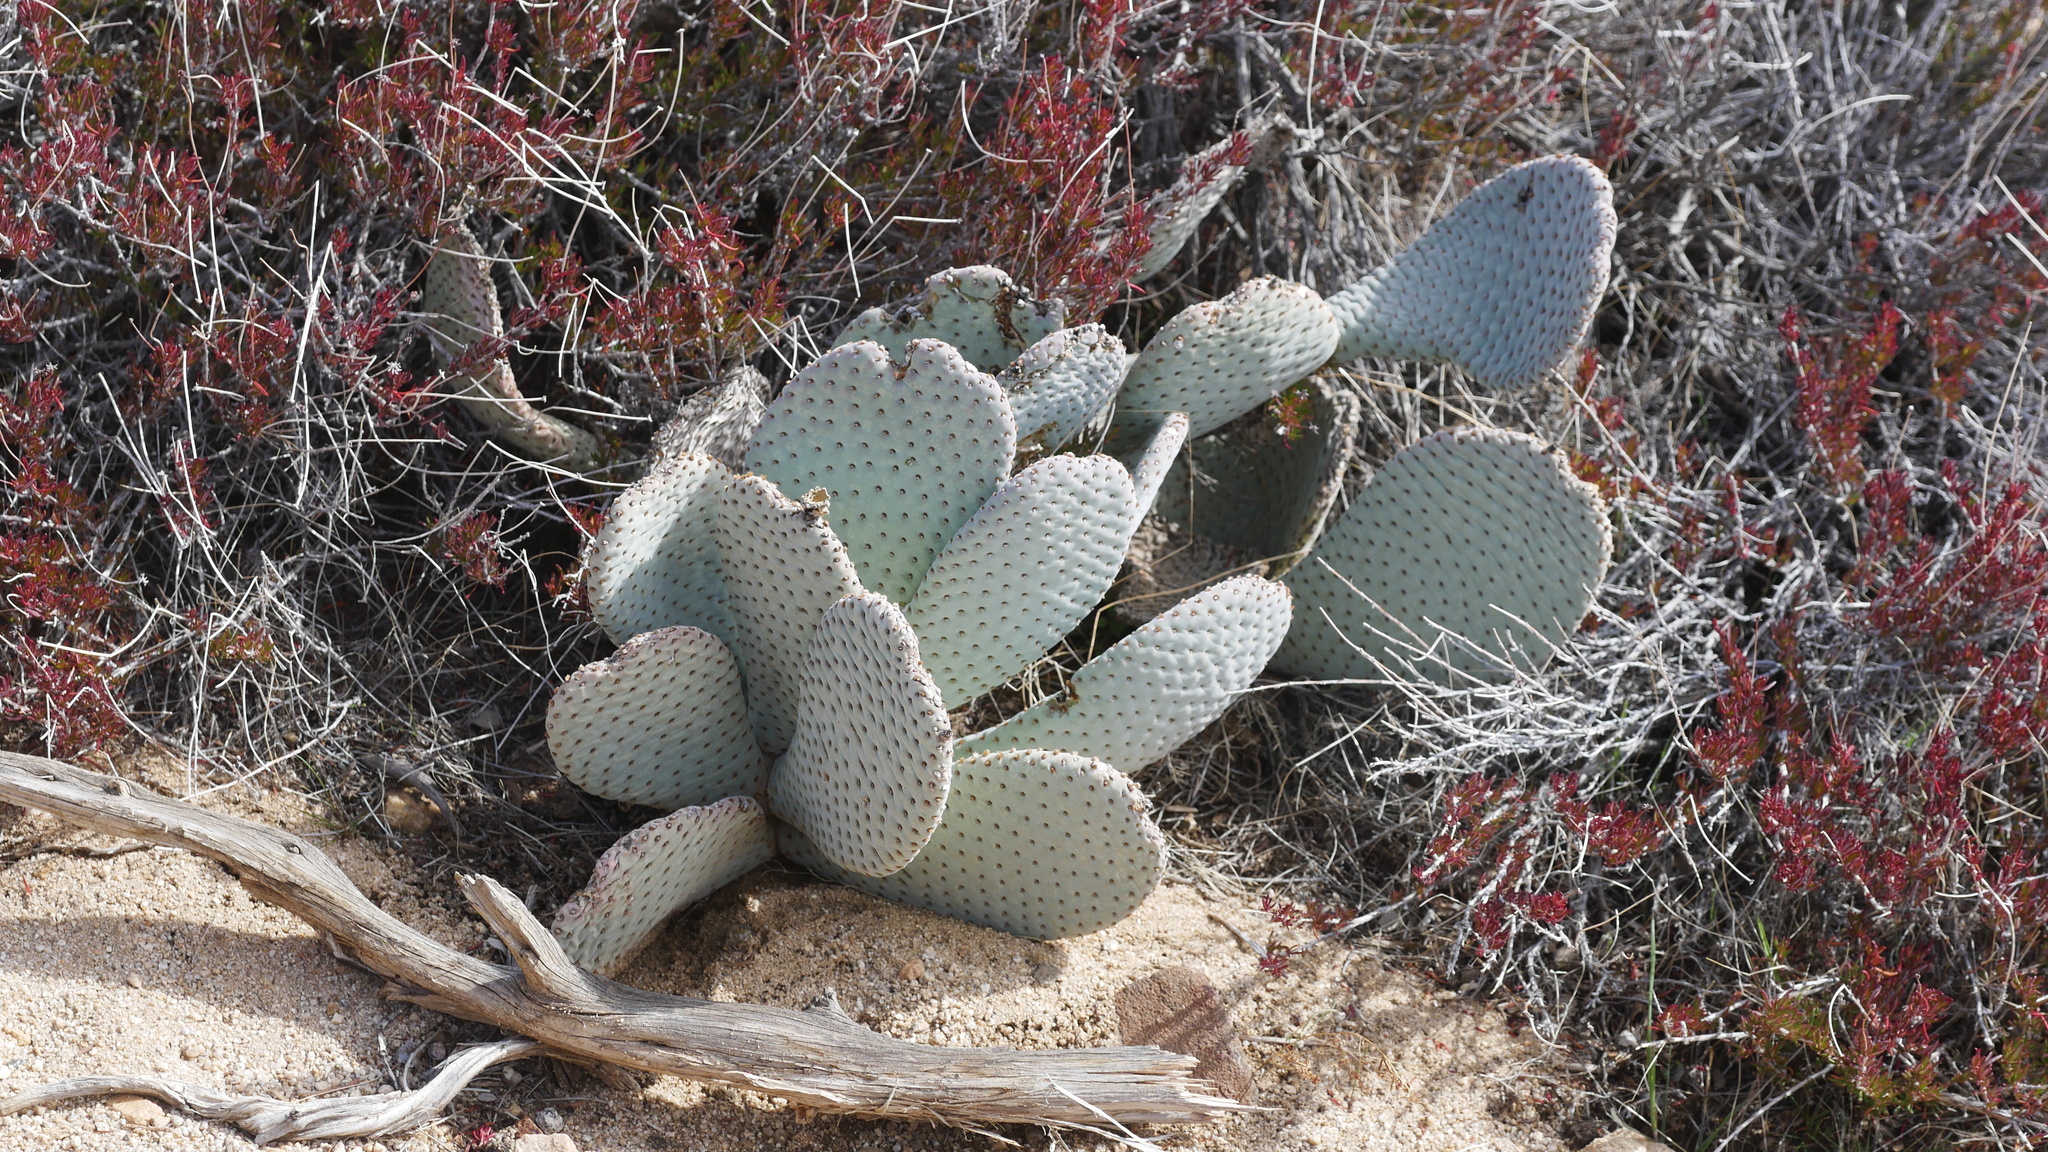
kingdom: Plantae
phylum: Tracheophyta
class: Magnoliopsida
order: Caryophyllales
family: Cactaceae
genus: Opuntia
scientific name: Opuntia basilaris
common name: Beavertail prickly-pear
